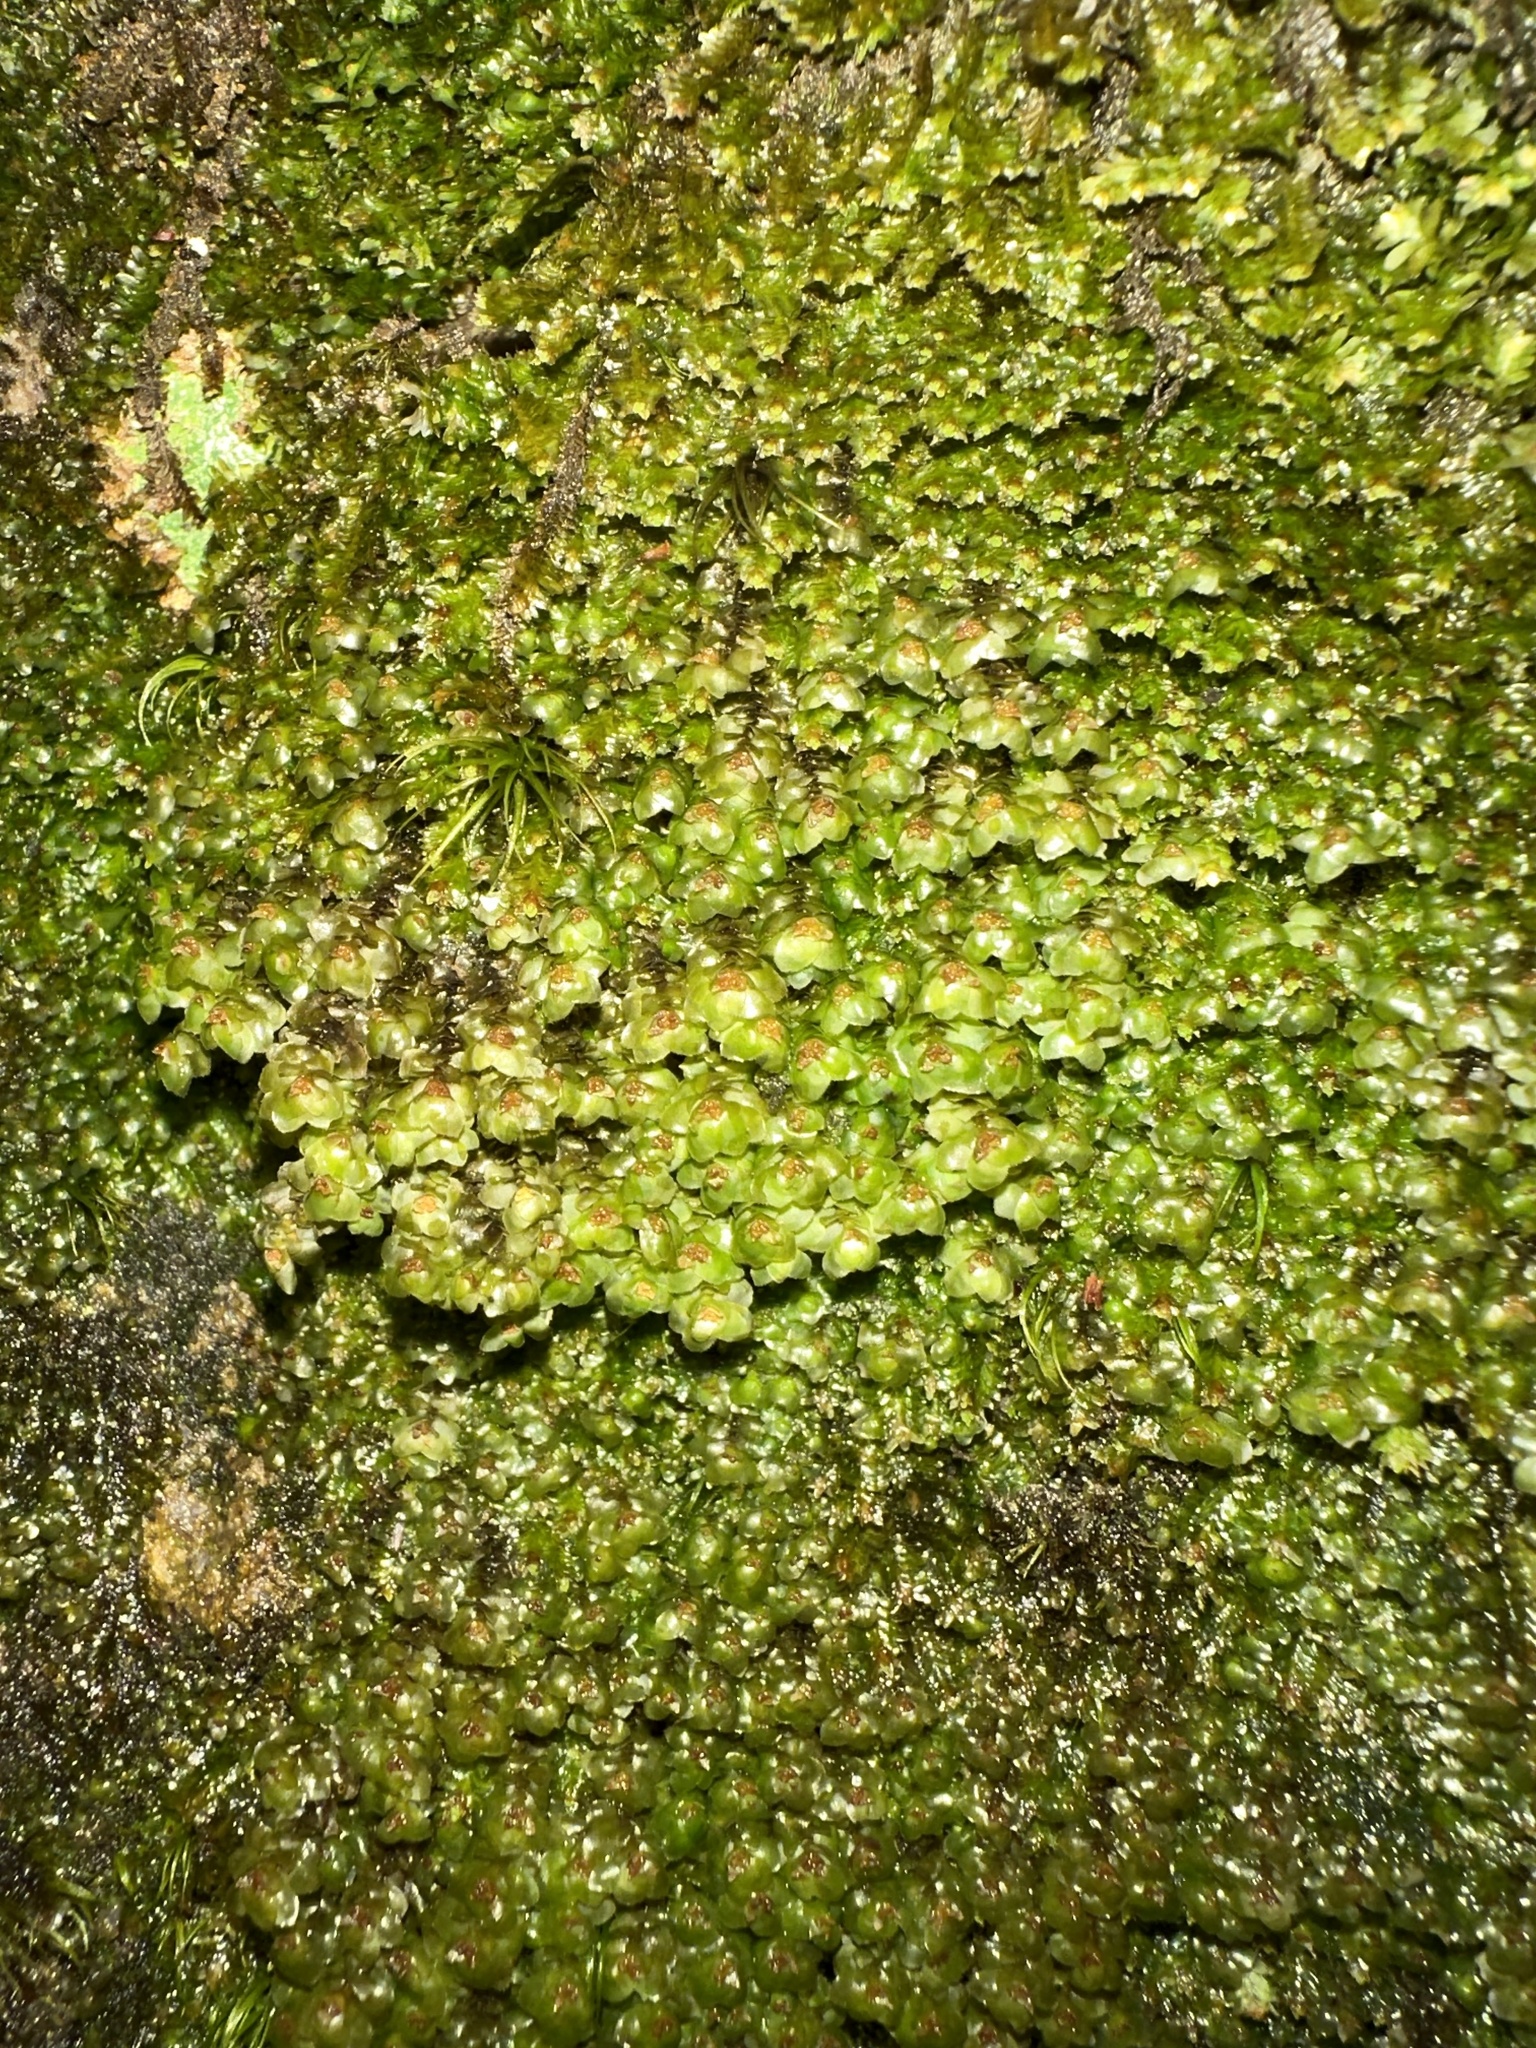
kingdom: Plantae
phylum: Marchantiophyta
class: Jungermanniopsida
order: Jungermanniales
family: Scapaniaceae
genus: Scapania
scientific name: Scapania nemorea
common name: Grove earwort
